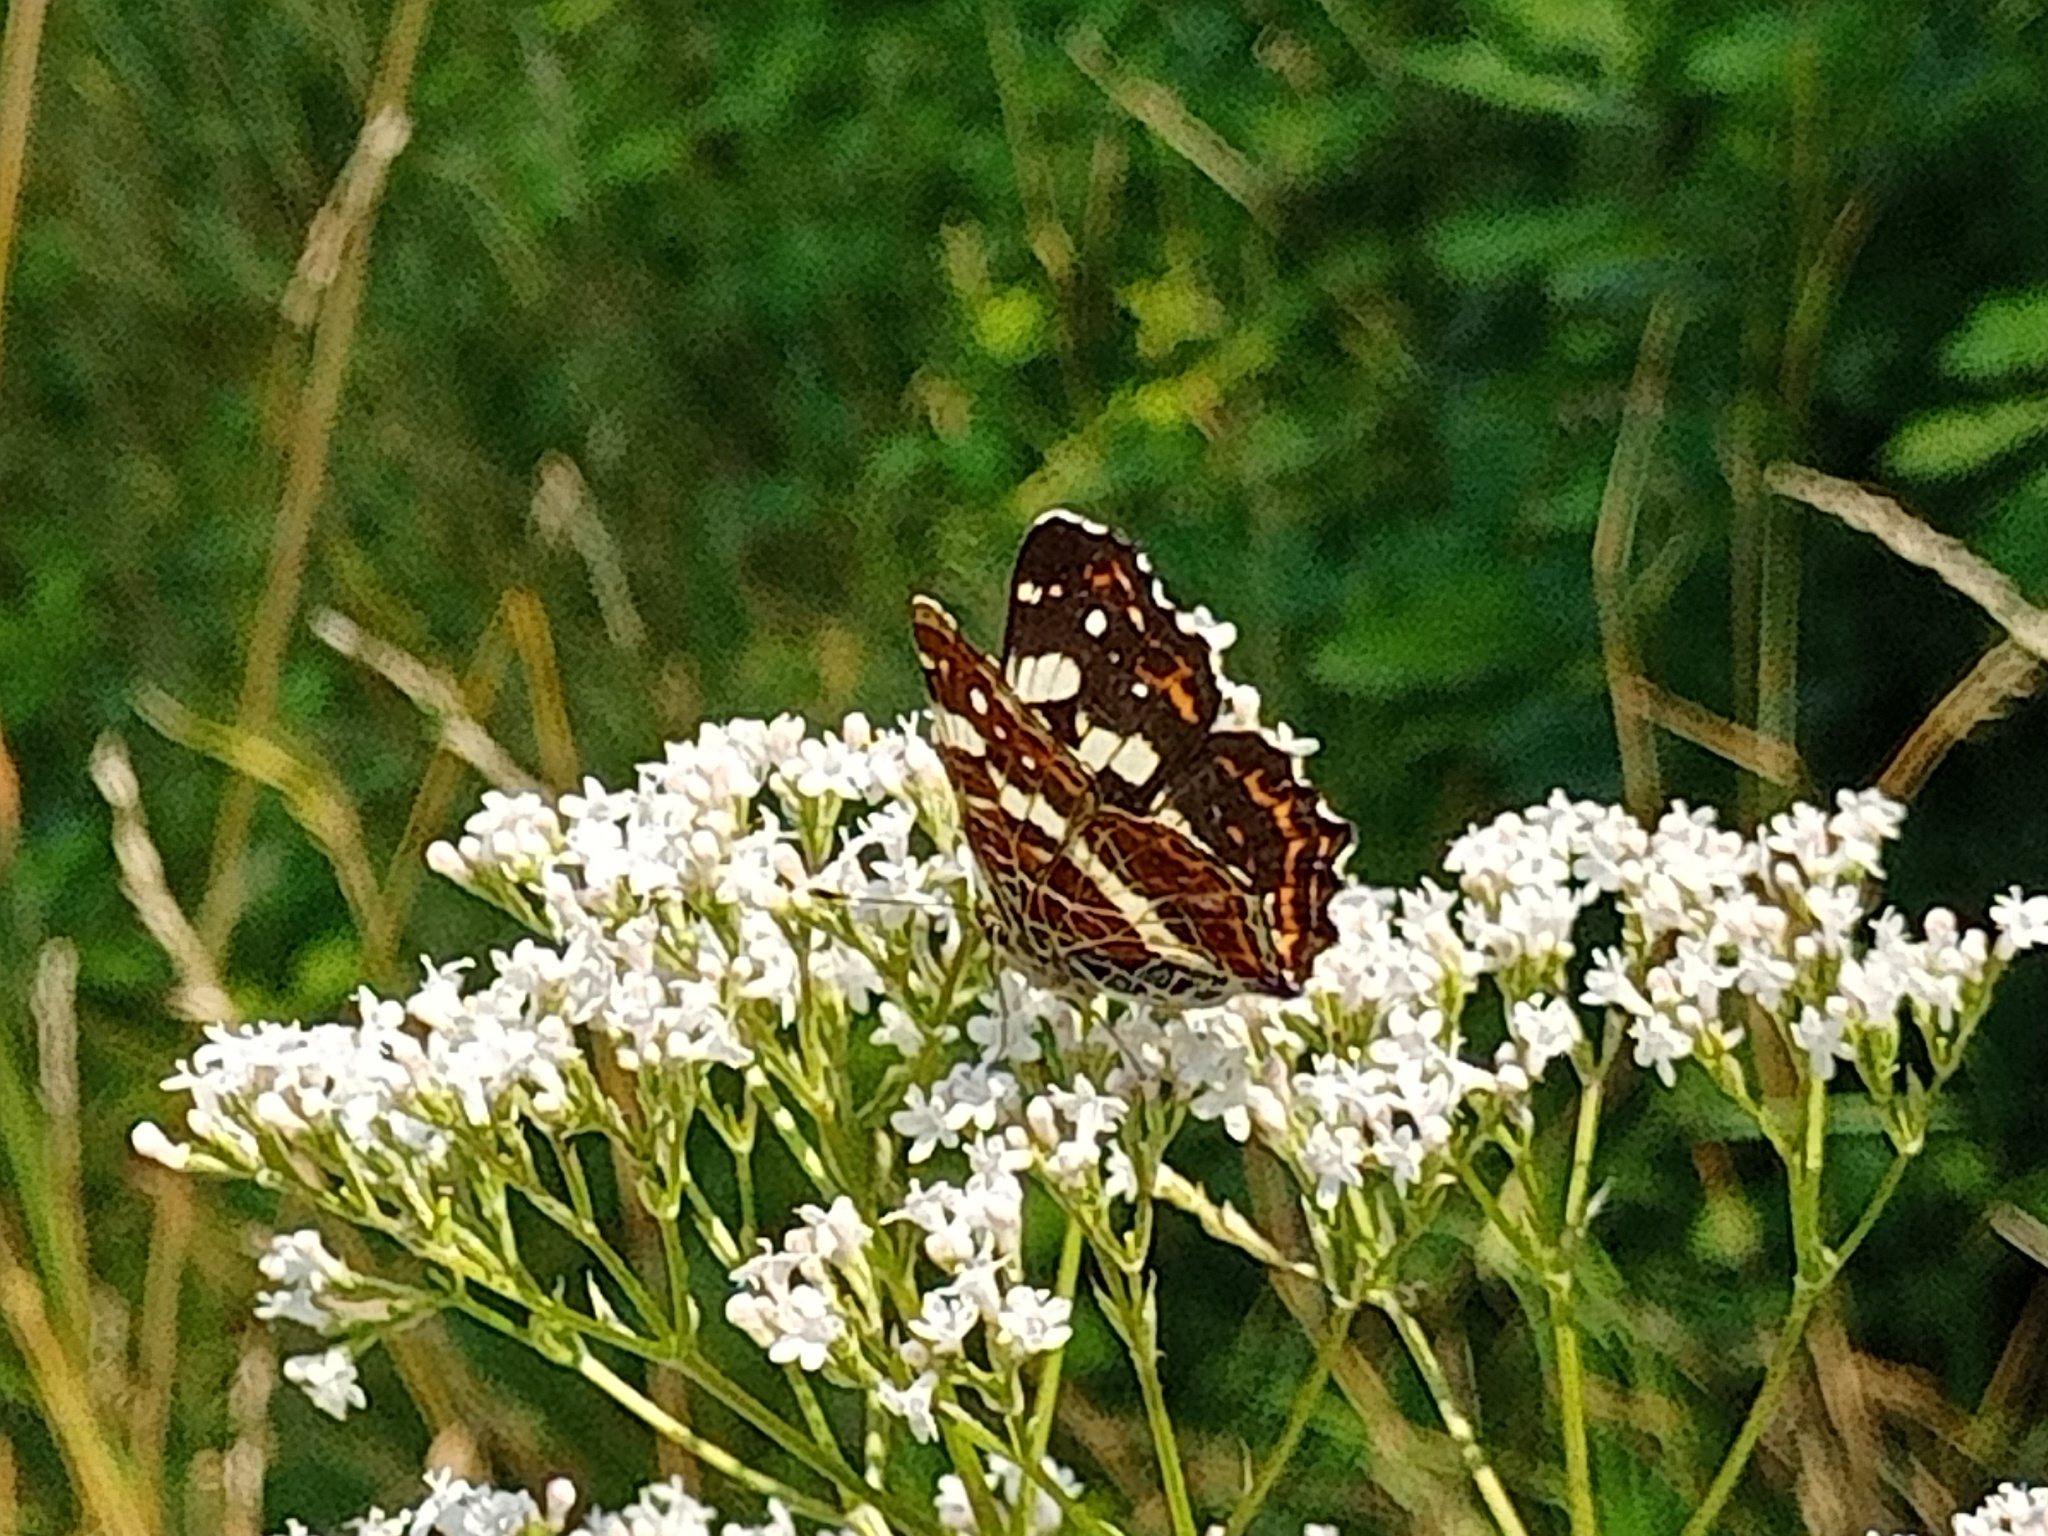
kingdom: Animalia
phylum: Arthropoda
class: Insecta
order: Lepidoptera
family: Nymphalidae
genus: Araschnia
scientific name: Araschnia levana
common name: Map butterfly
